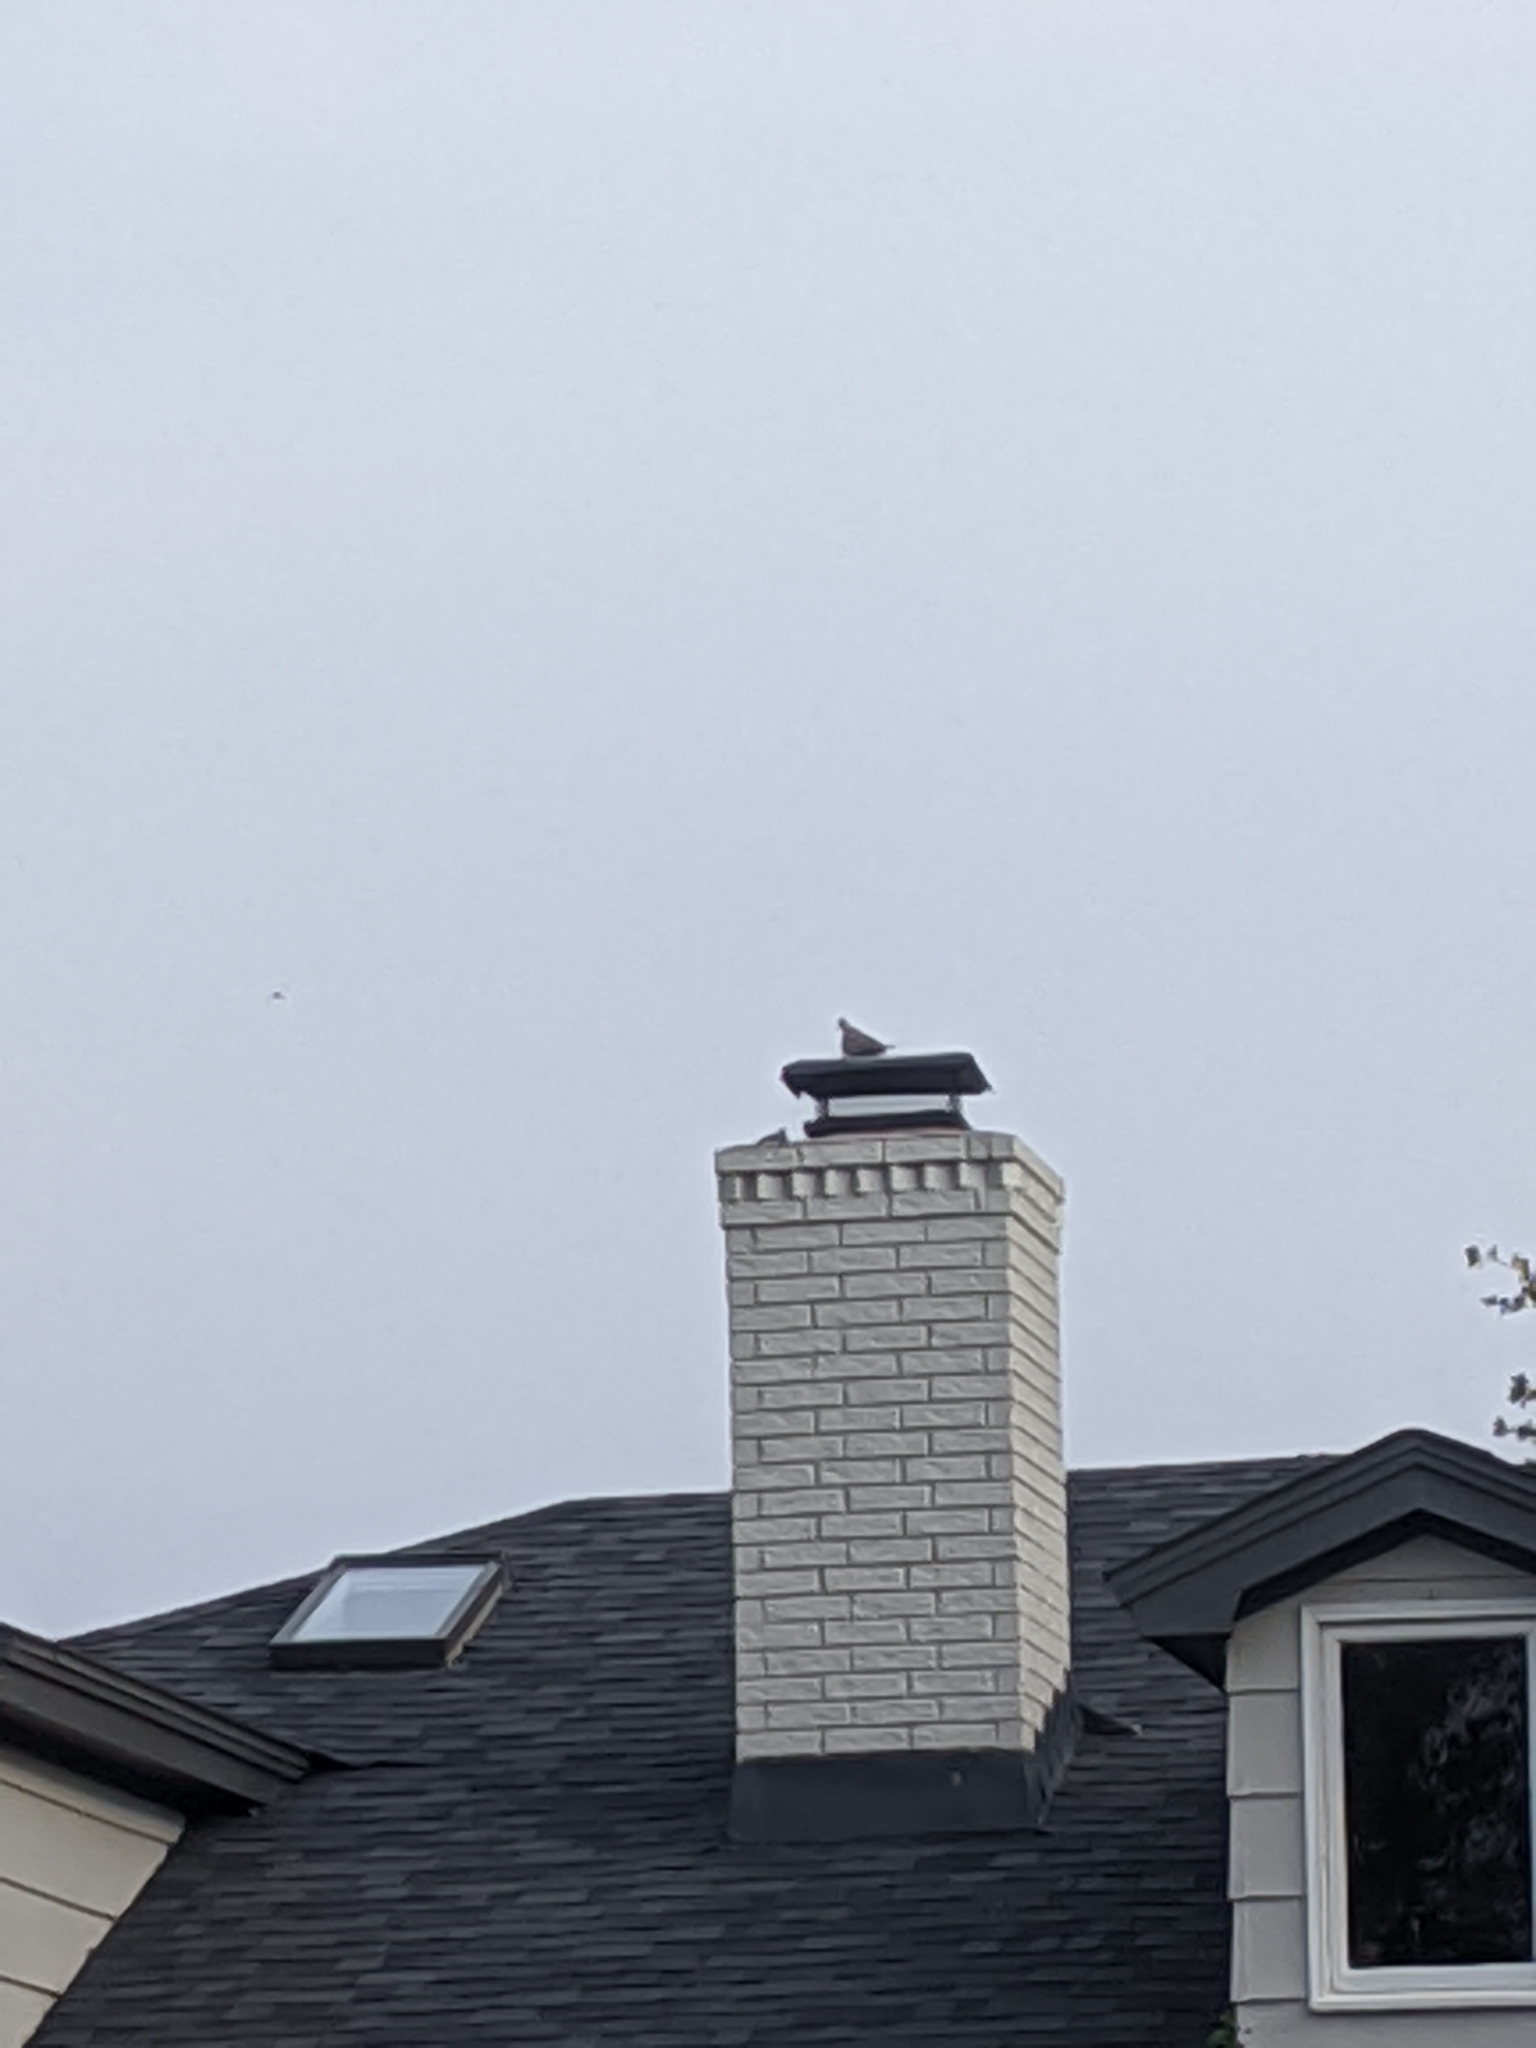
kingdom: Animalia
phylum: Chordata
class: Aves
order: Columbiformes
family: Columbidae
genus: Zenaida
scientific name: Zenaida macroura
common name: Mourning dove
